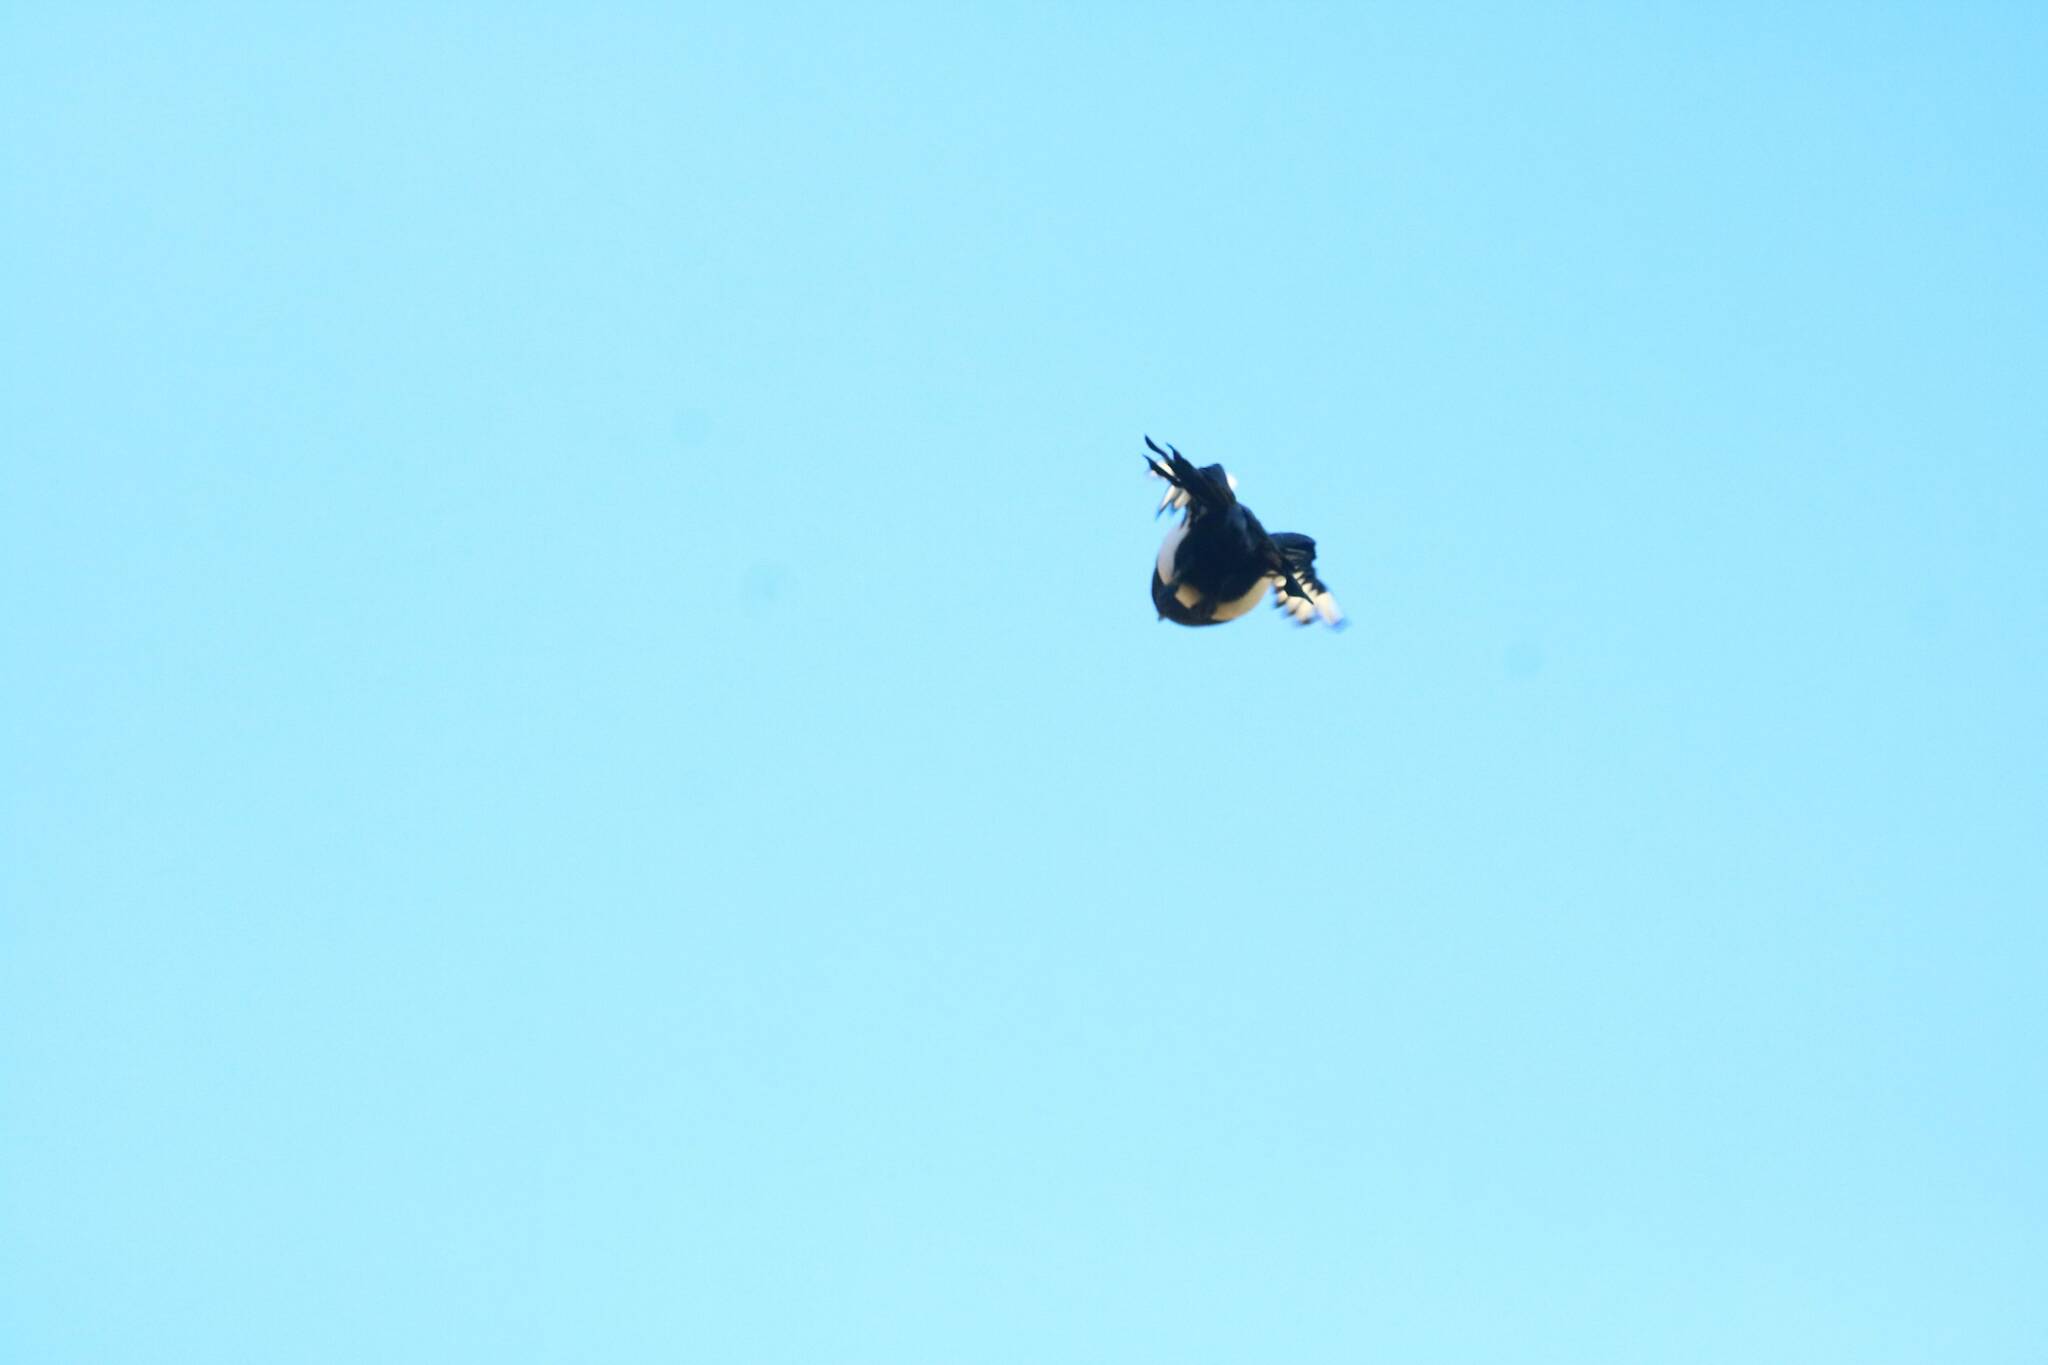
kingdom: Animalia
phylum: Chordata
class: Aves
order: Passeriformes
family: Corvidae
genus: Pica
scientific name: Pica mauritanica
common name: Maghreb magpie
